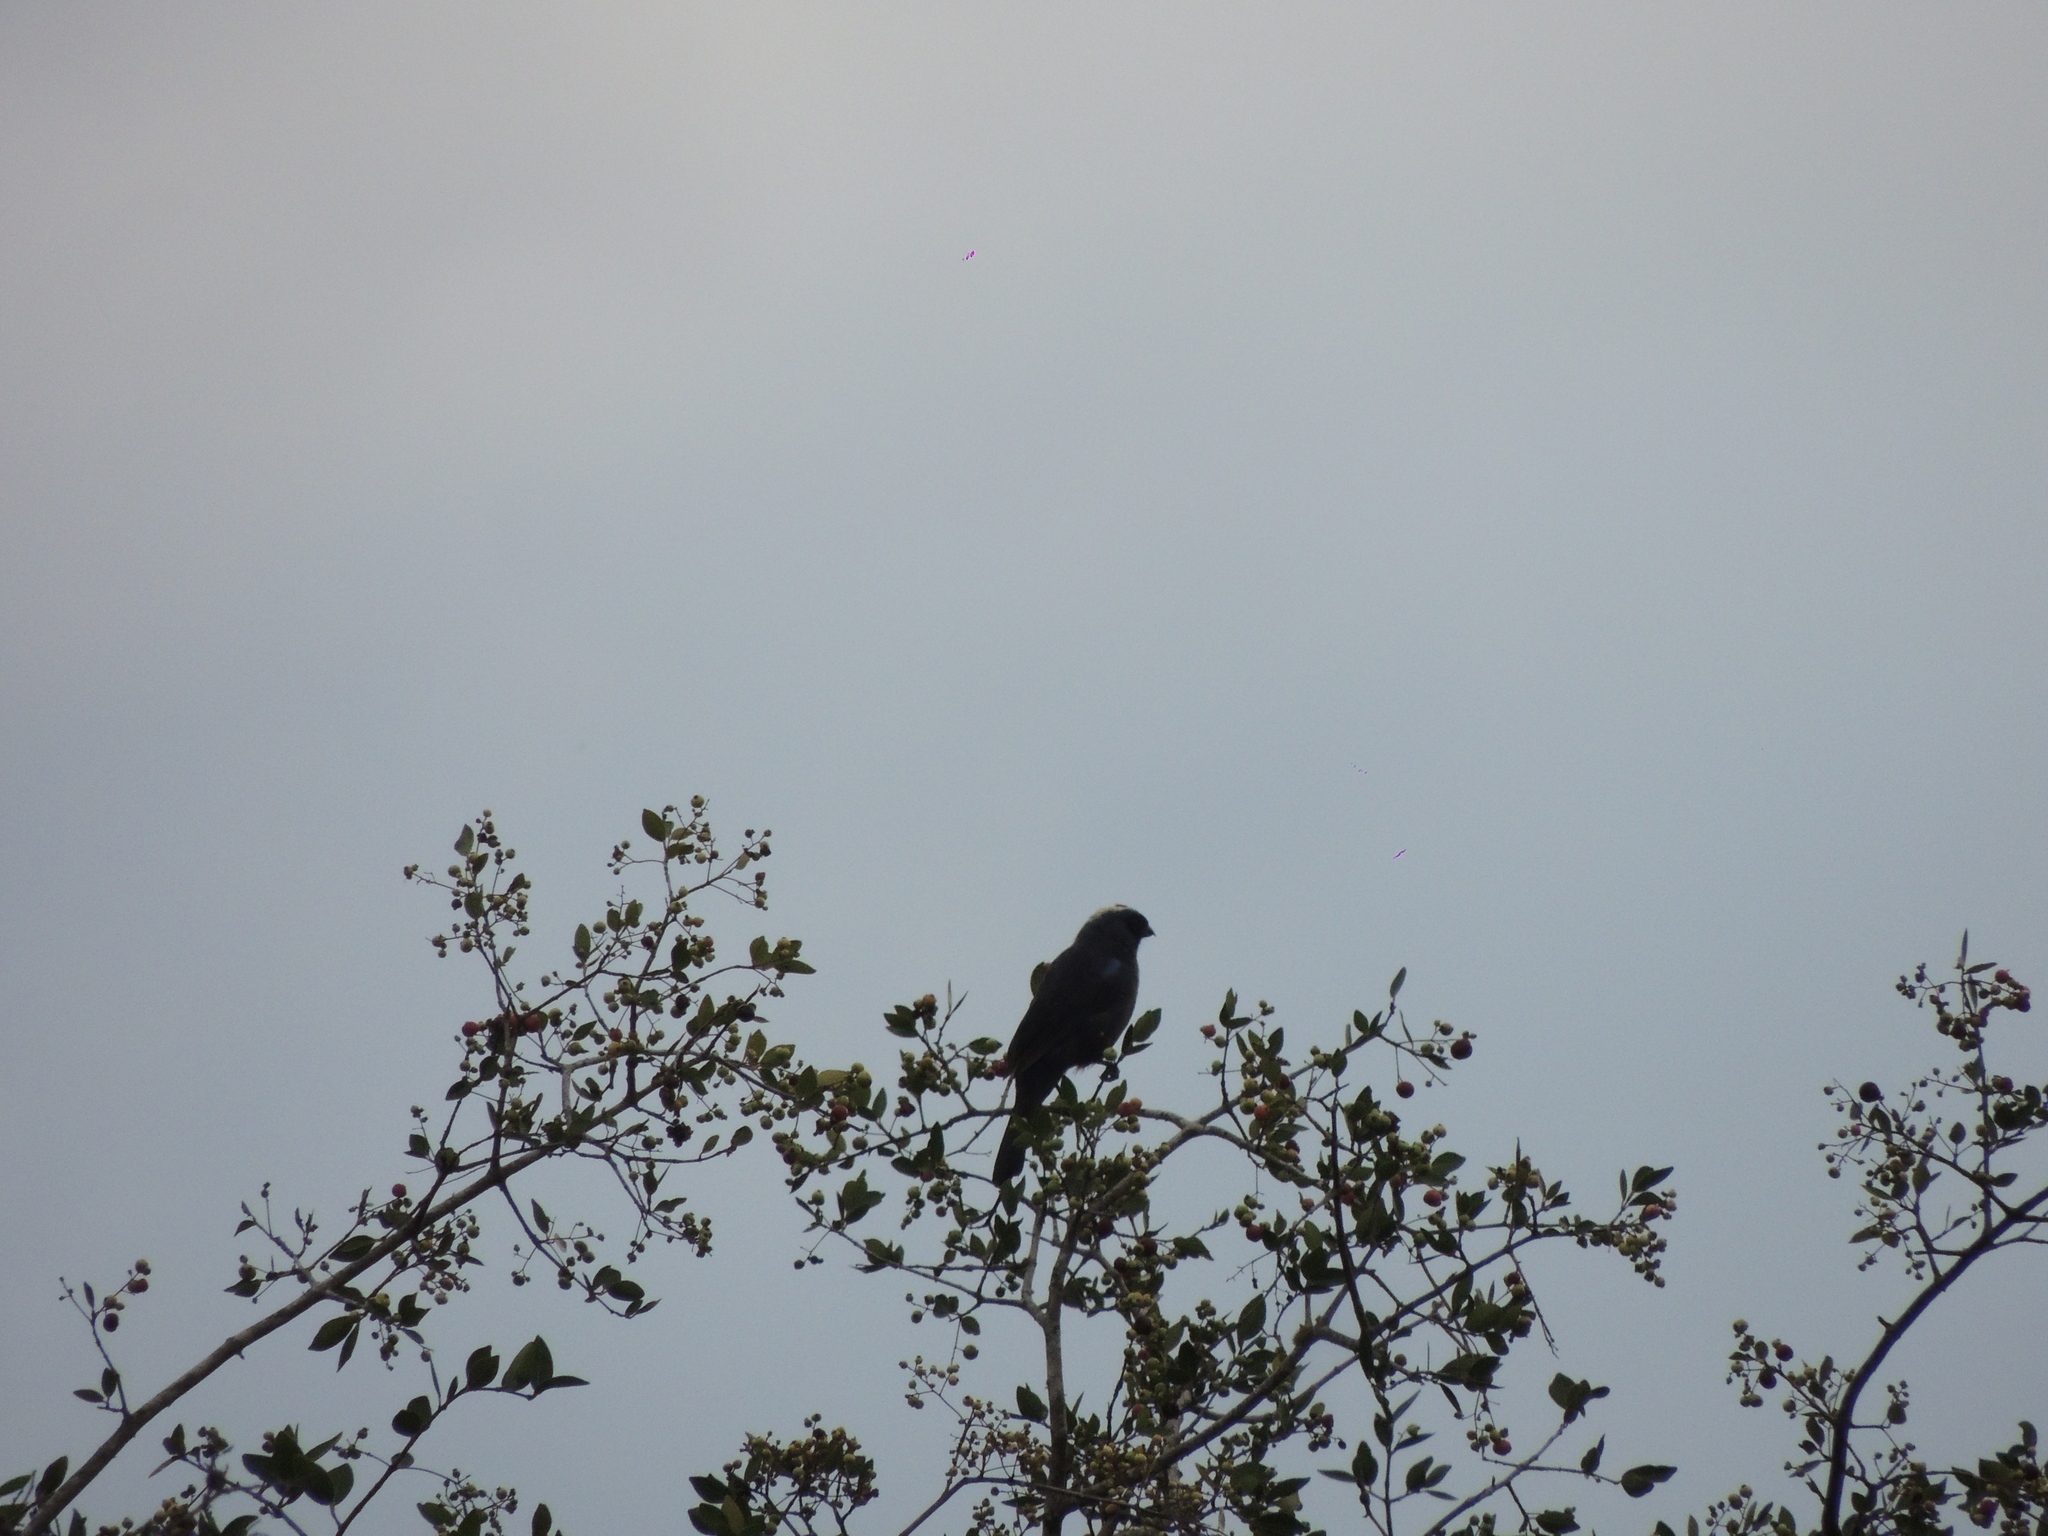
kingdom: Animalia
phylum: Chordata
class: Aves
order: Passeriformes
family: Thraupidae
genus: Stephanophorus
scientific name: Stephanophorus diadematus
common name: Diademed tanager
